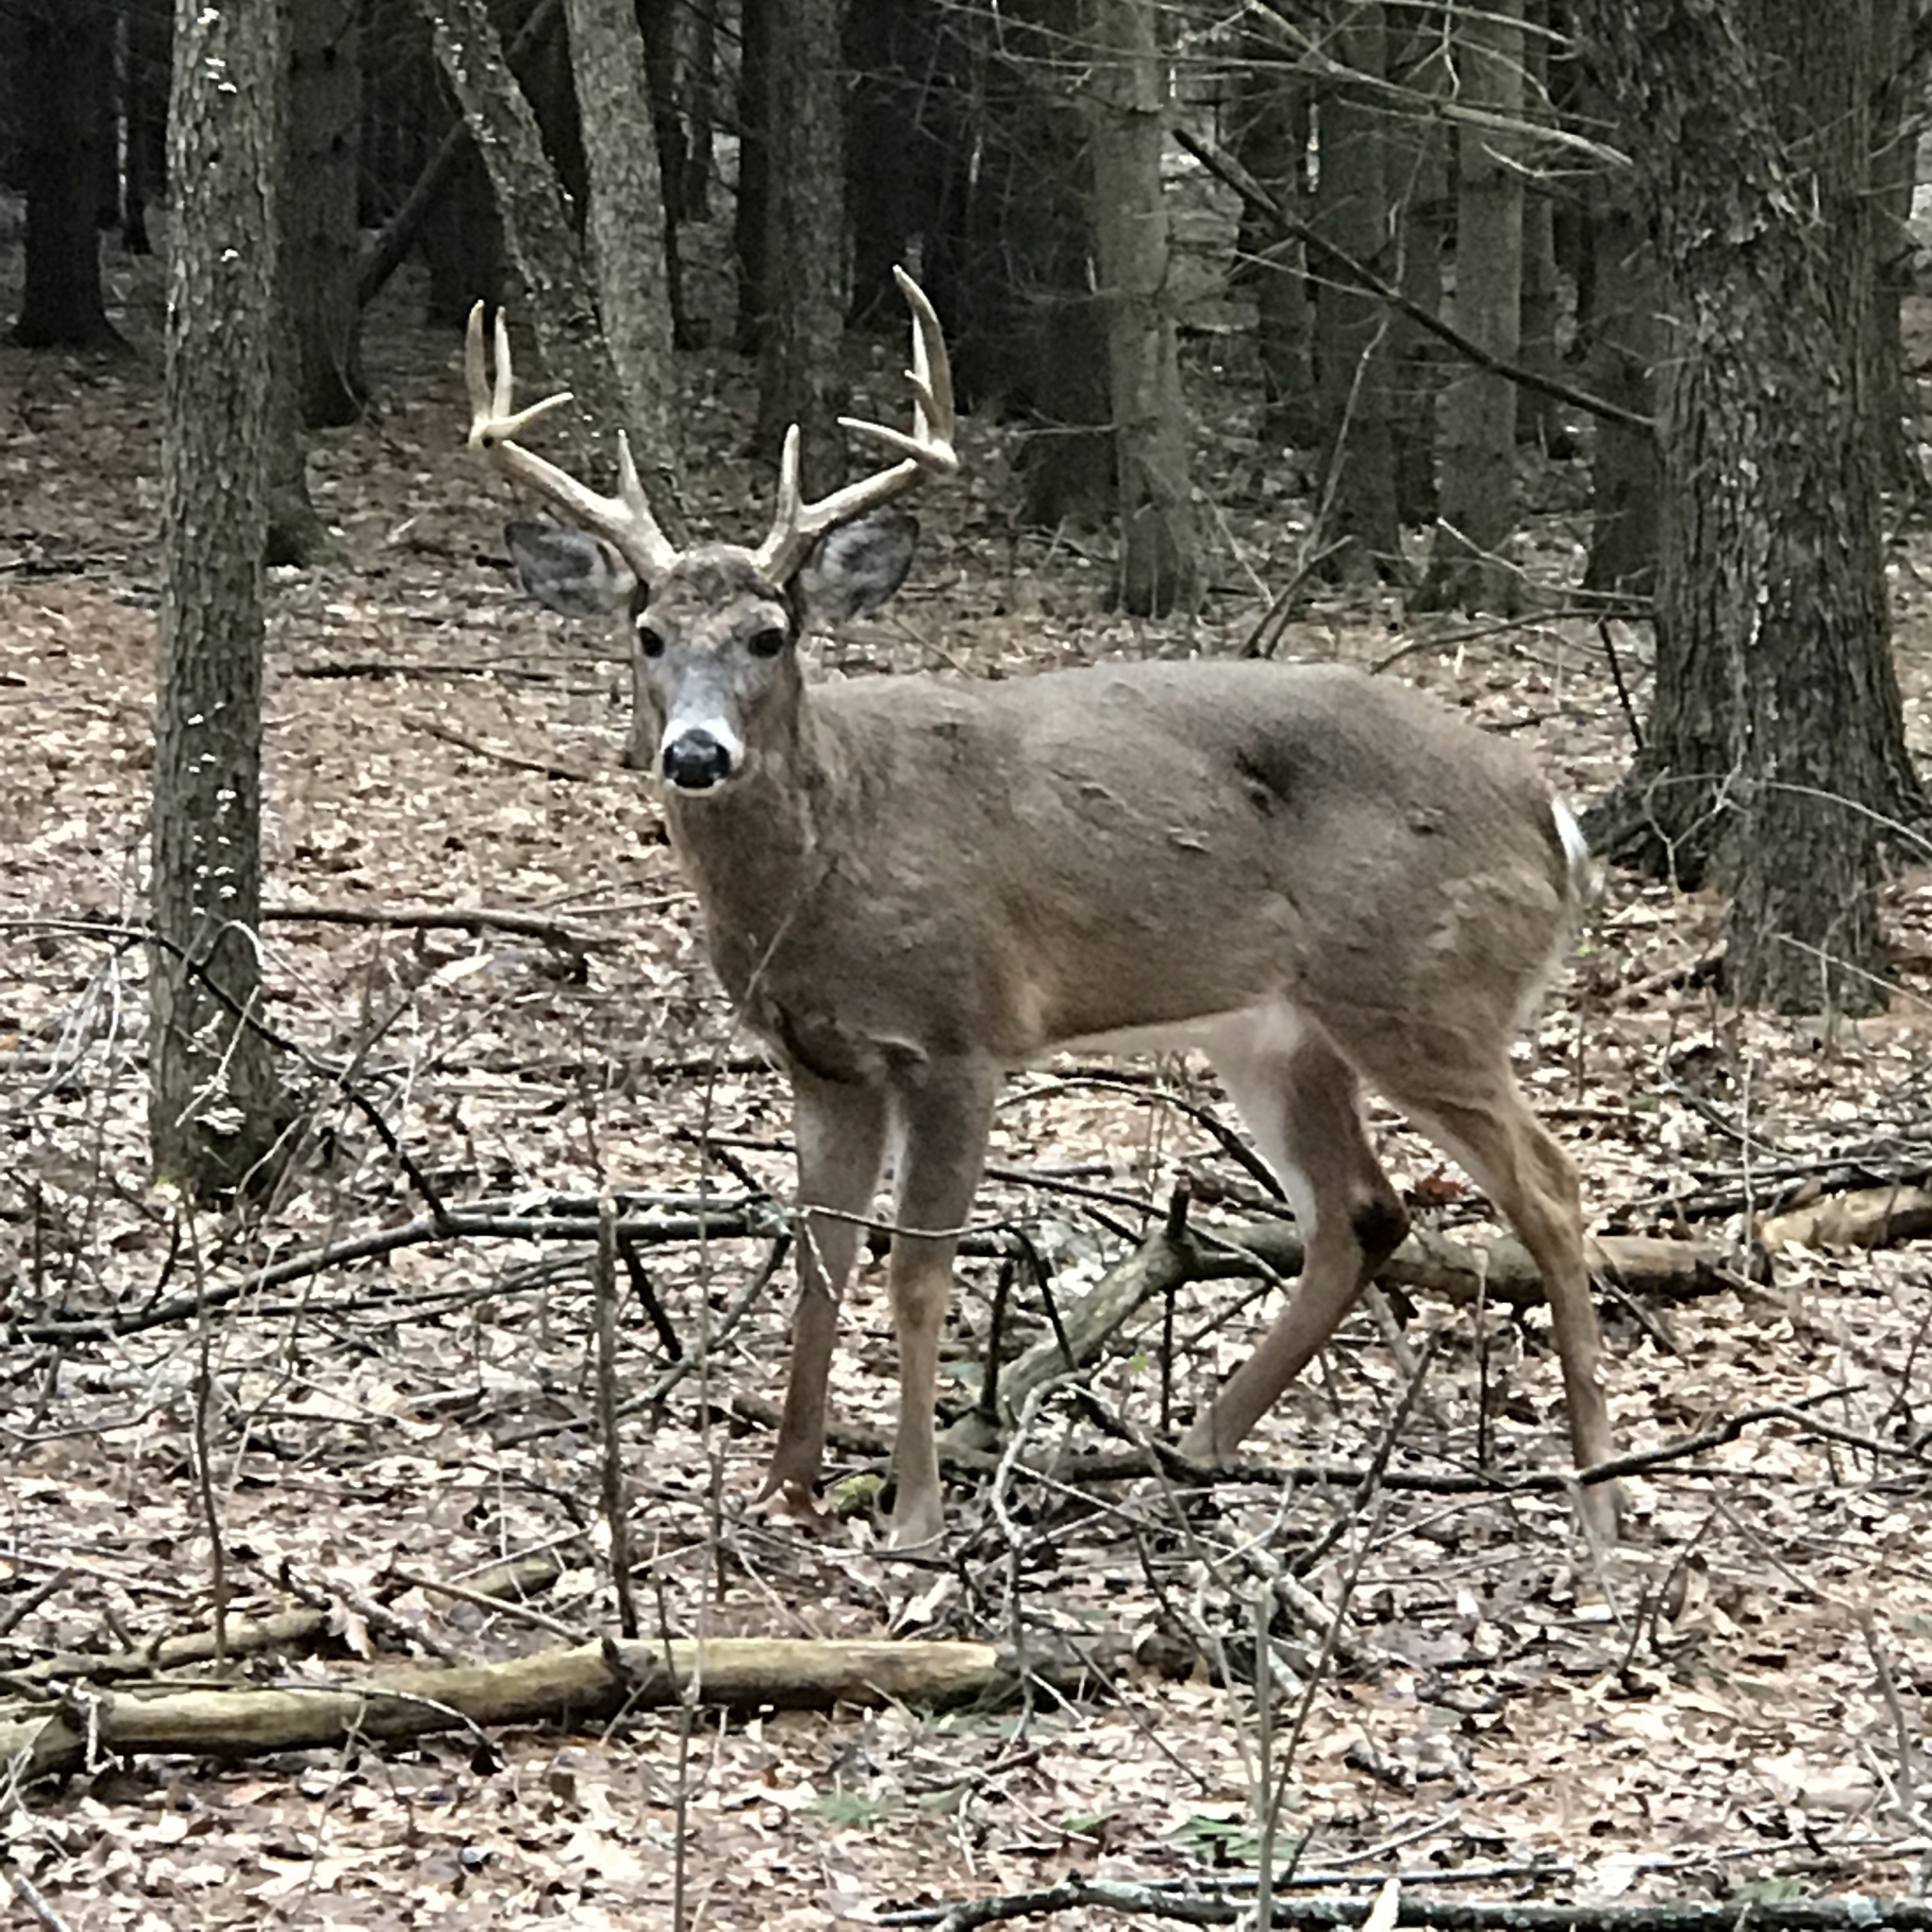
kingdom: Animalia
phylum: Chordata
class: Mammalia
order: Artiodactyla
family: Cervidae
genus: Odocoileus
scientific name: Odocoileus virginianus
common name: White-tailed deer
